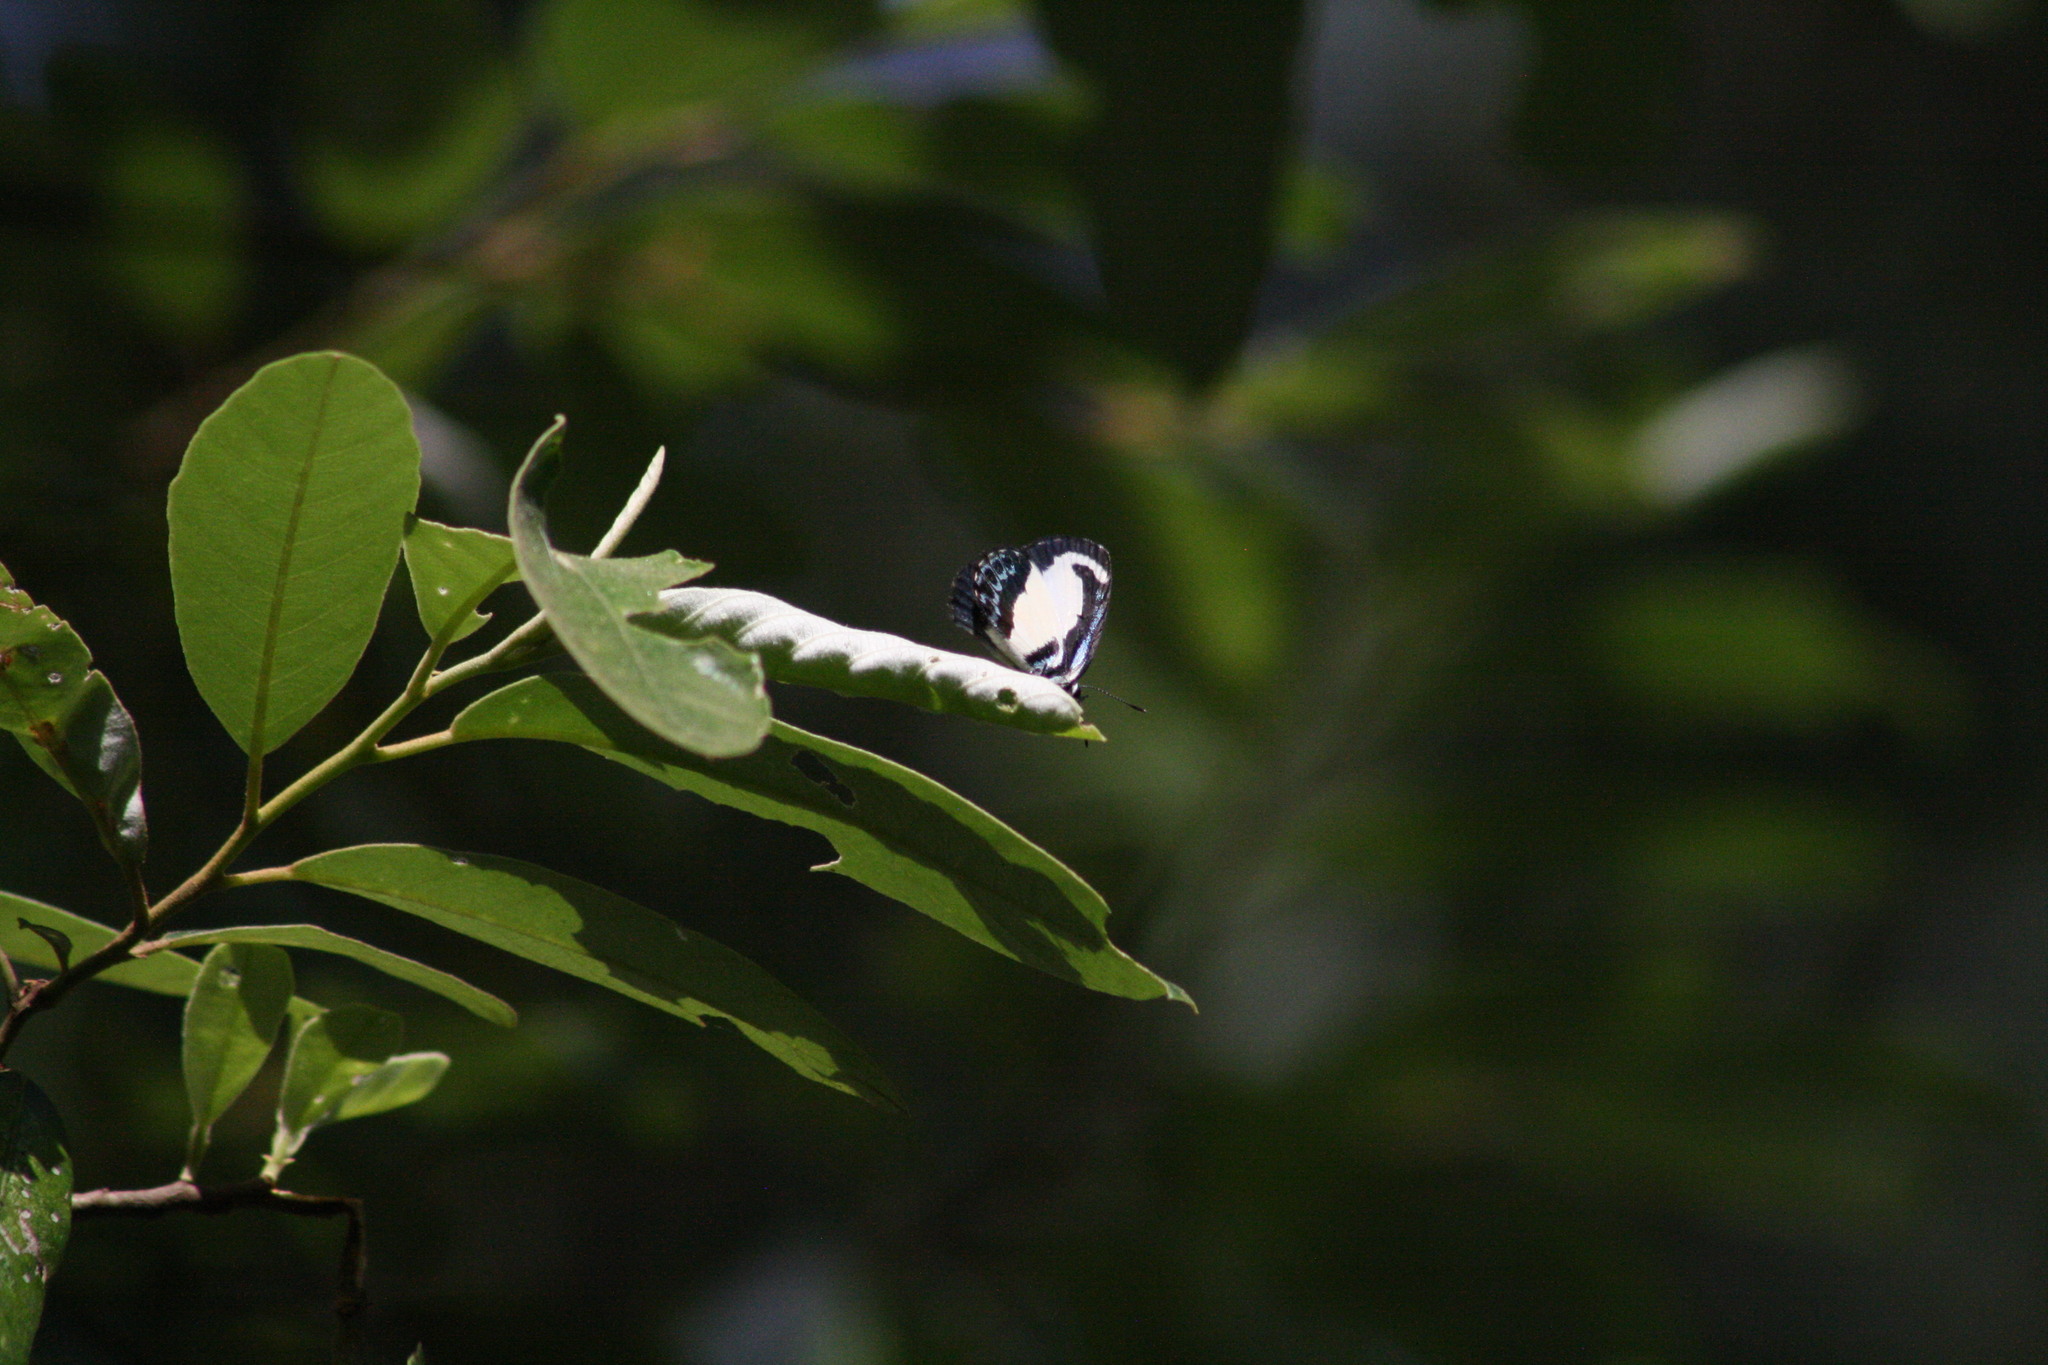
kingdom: Animalia
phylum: Arthropoda
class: Insecta
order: Lepidoptera
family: Lycaenidae
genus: Psychonotis
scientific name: Psychonotis caelius
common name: Small green banded blue
